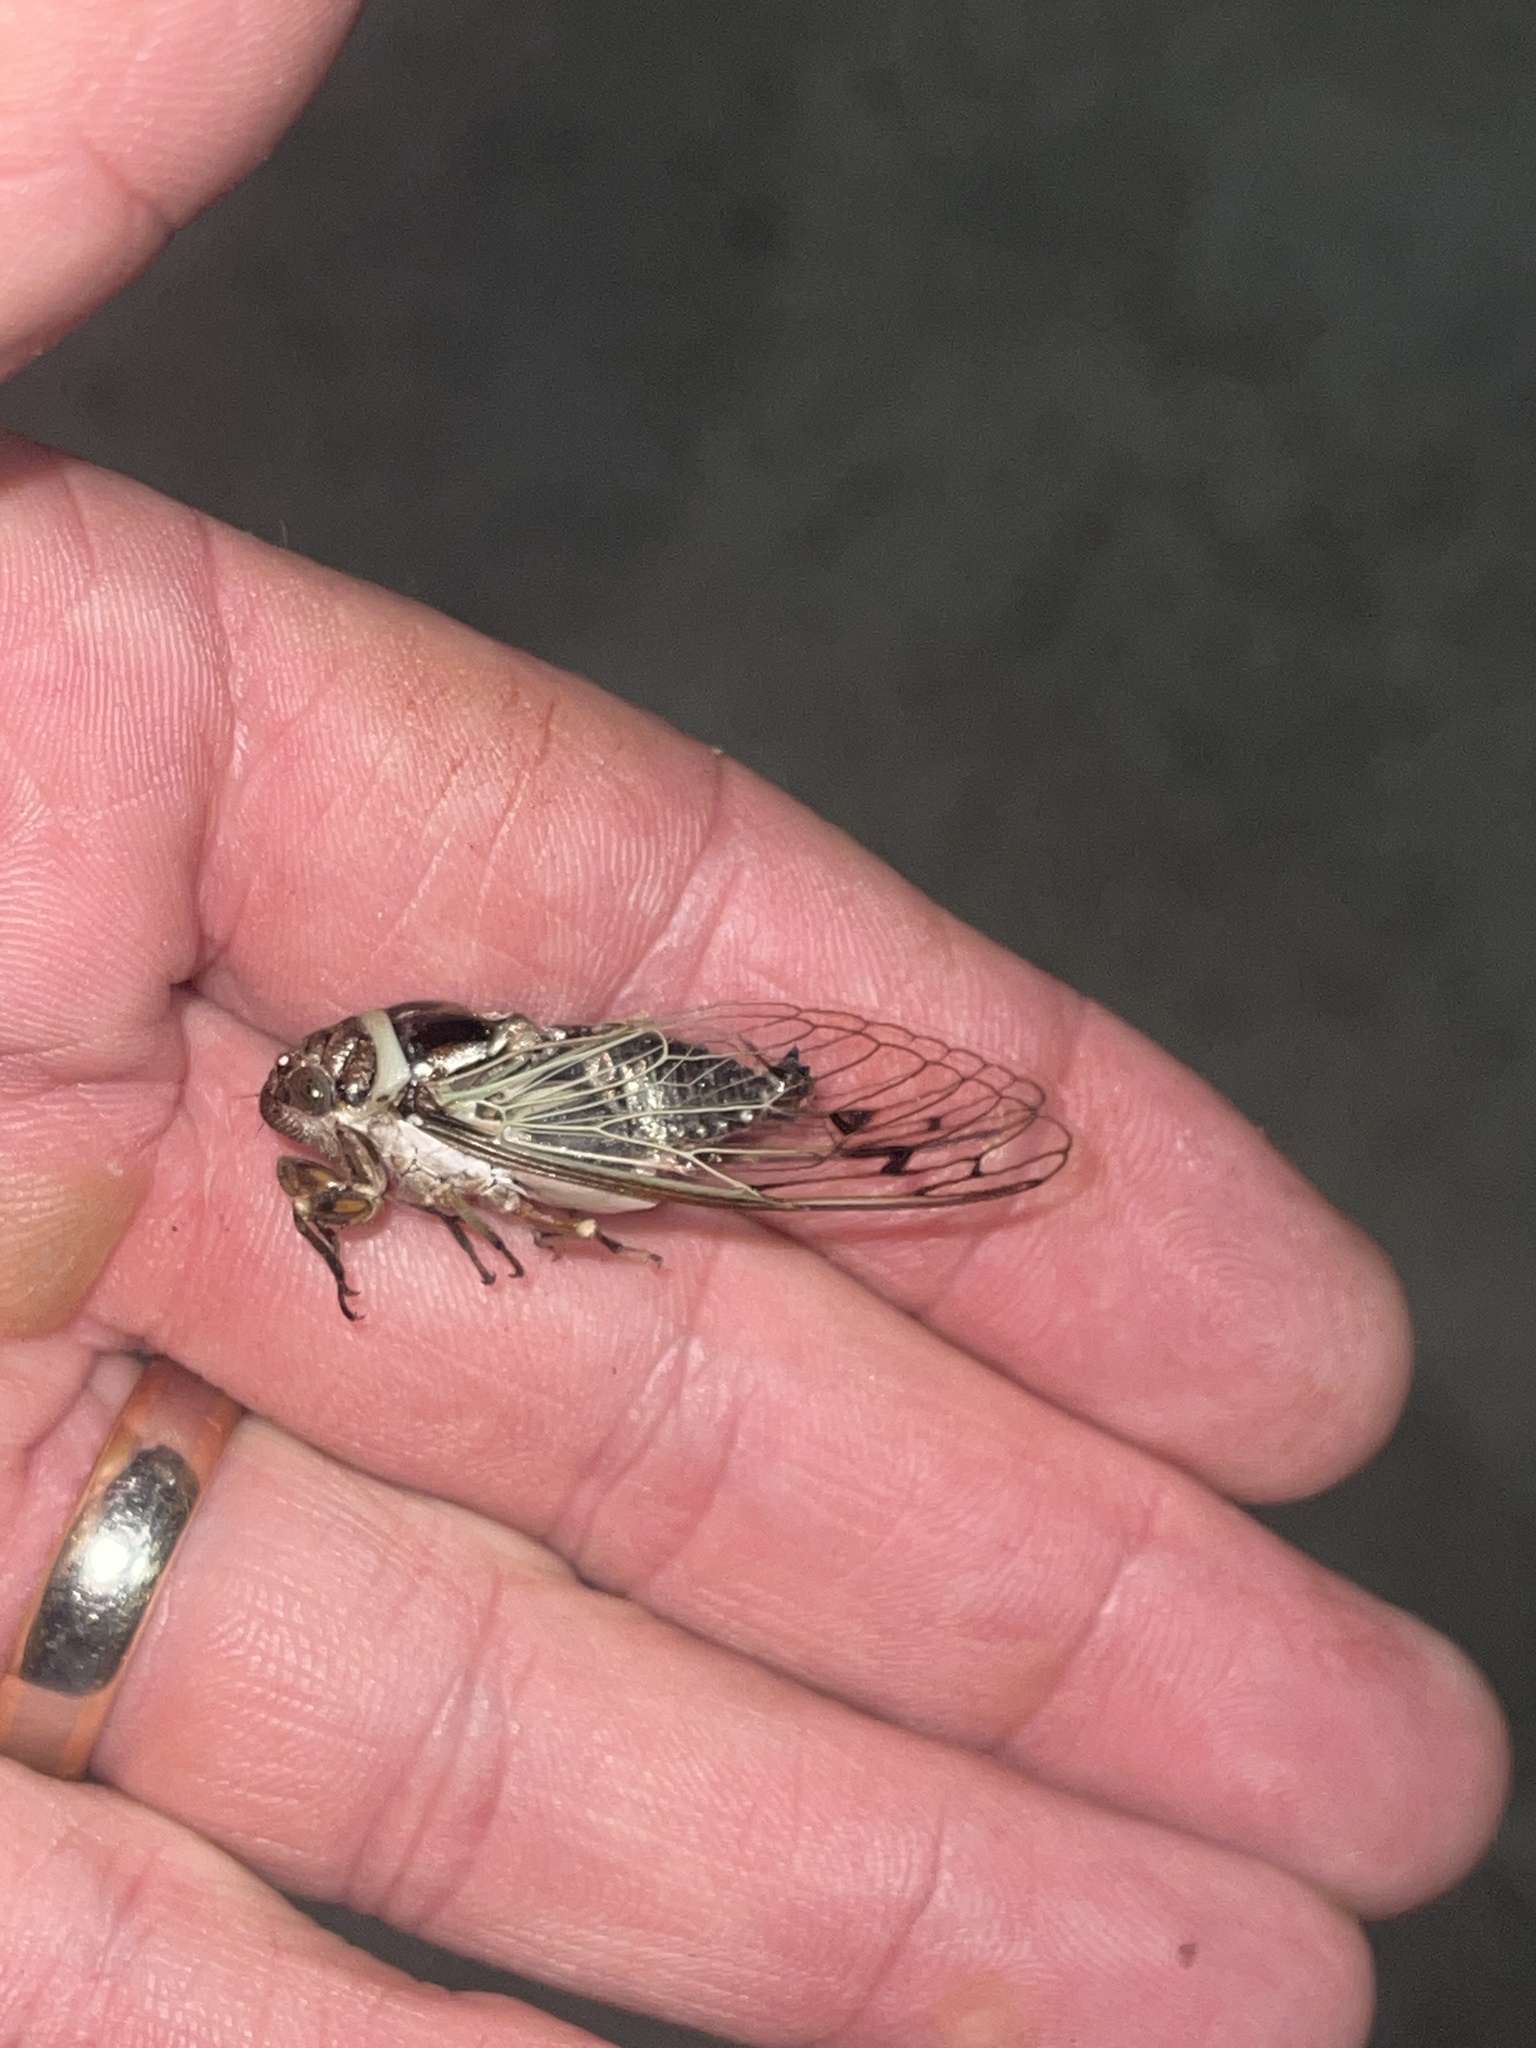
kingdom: Animalia
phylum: Arthropoda
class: Insecta
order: Hemiptera
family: Cicadidae
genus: Diceroprocta
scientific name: Diceroprocta marevagans
